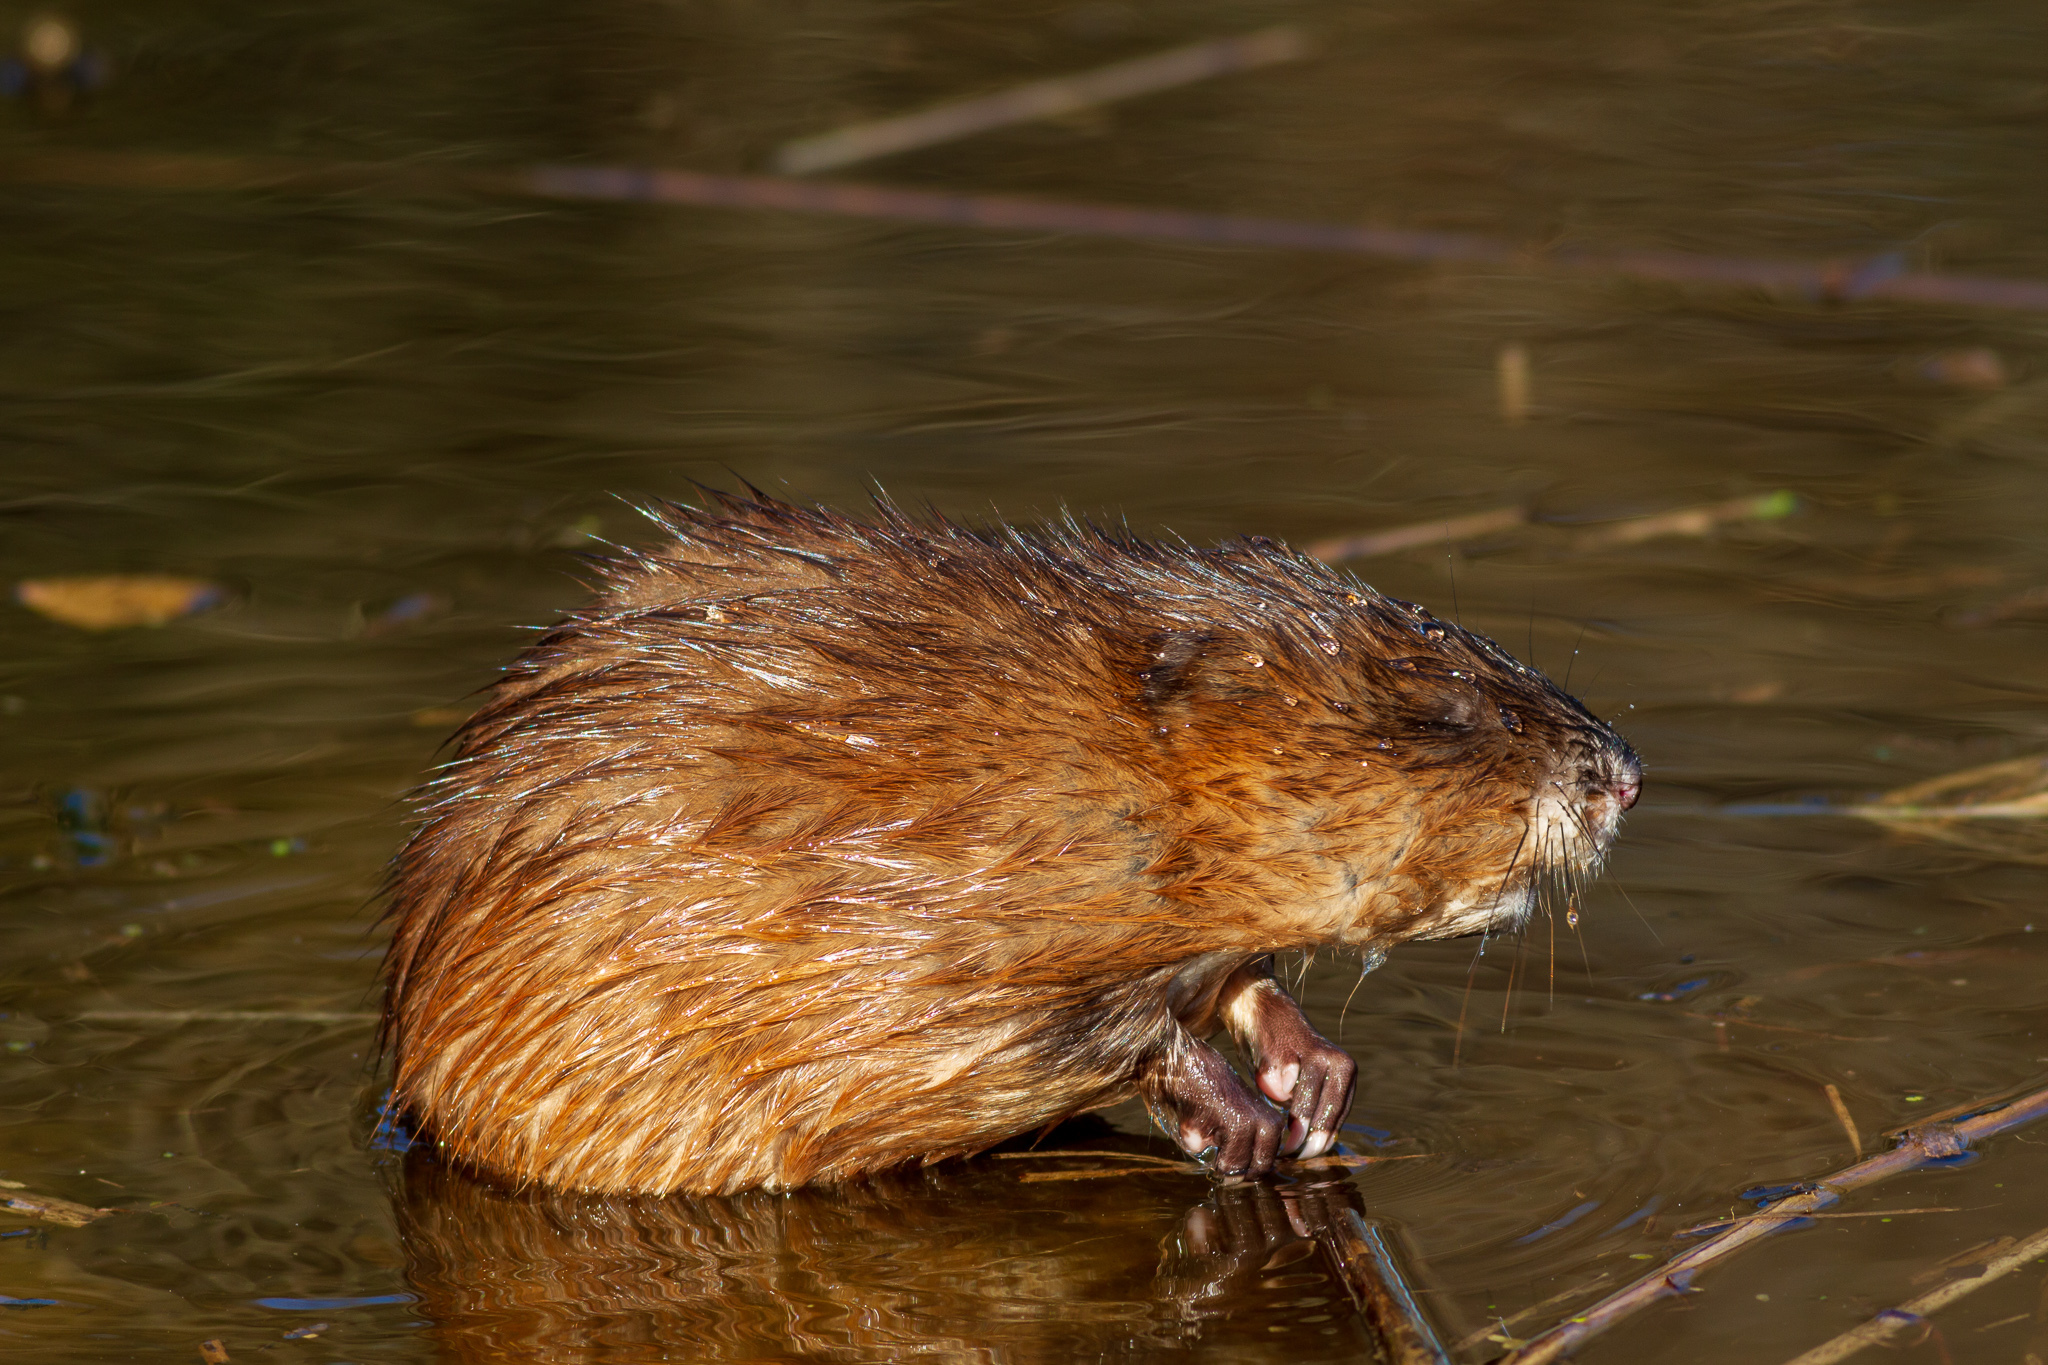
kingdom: Animalia
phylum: Chordata
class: Mammalia
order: Rodentia
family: Cricetidae
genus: Ondatra
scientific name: Ondatra zibethicus
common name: Muskrat
